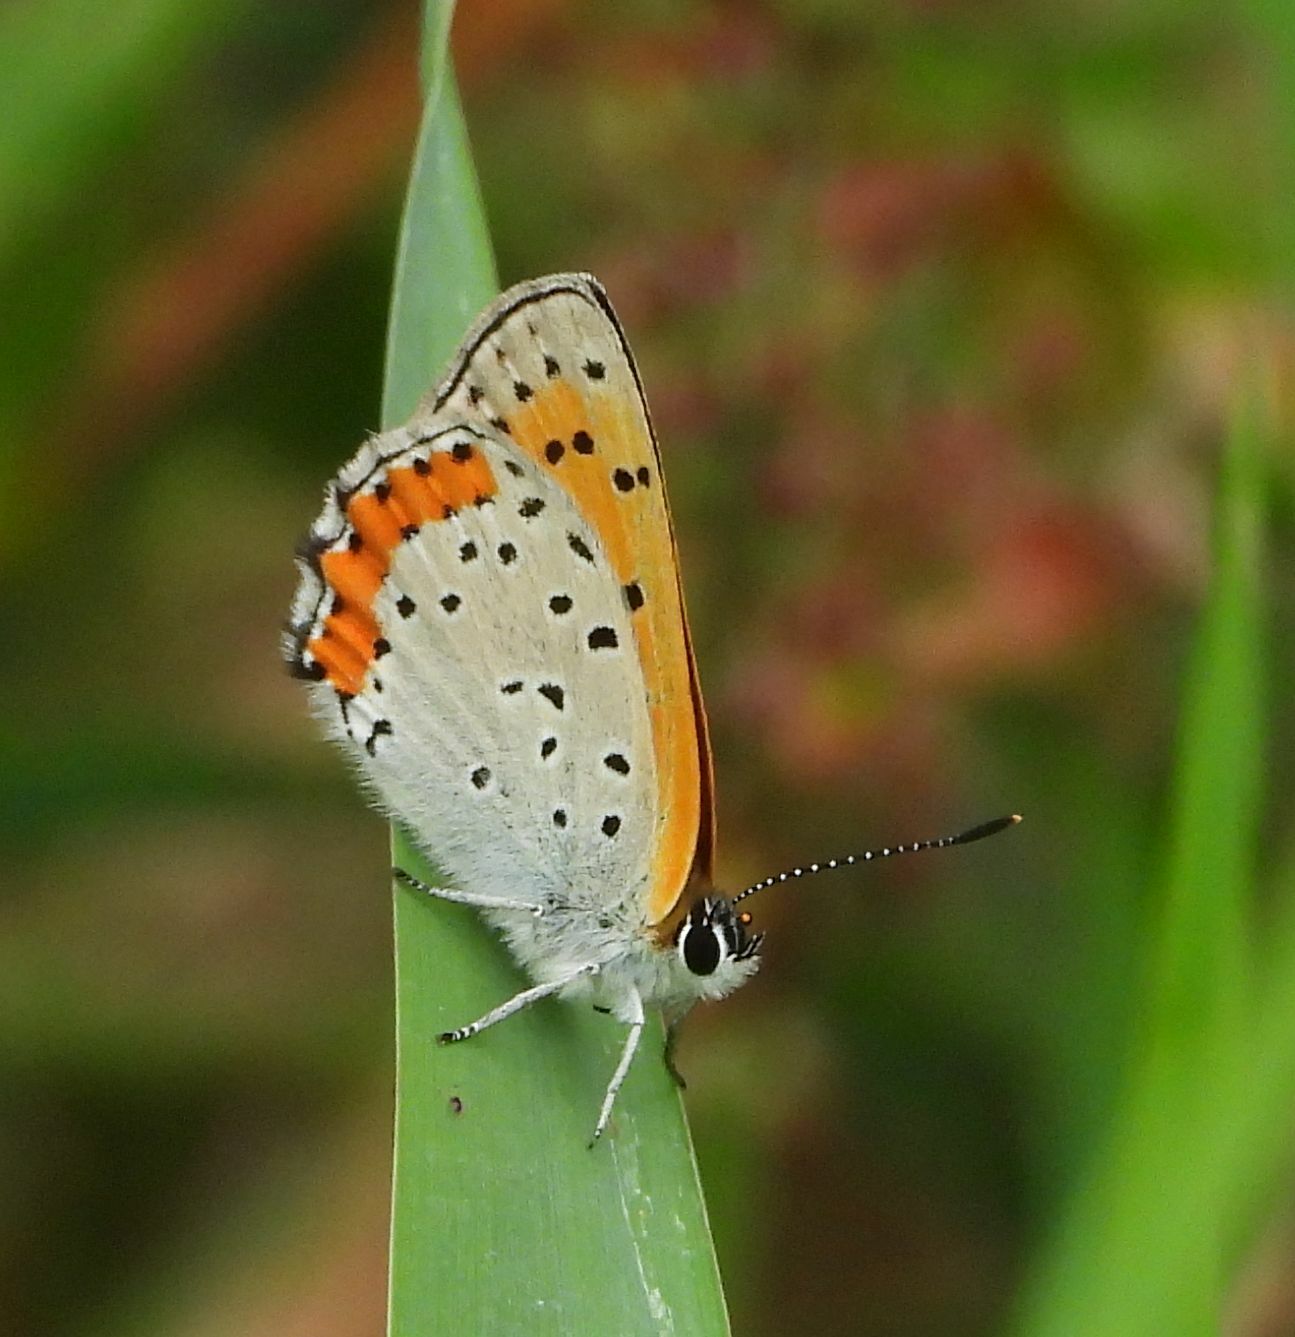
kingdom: Animalia
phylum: Arthropoda
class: Insecta
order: Lepidoptera
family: Lycaenidae
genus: Tharsalea
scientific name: Tharsalea hyllus
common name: Bronze copper
